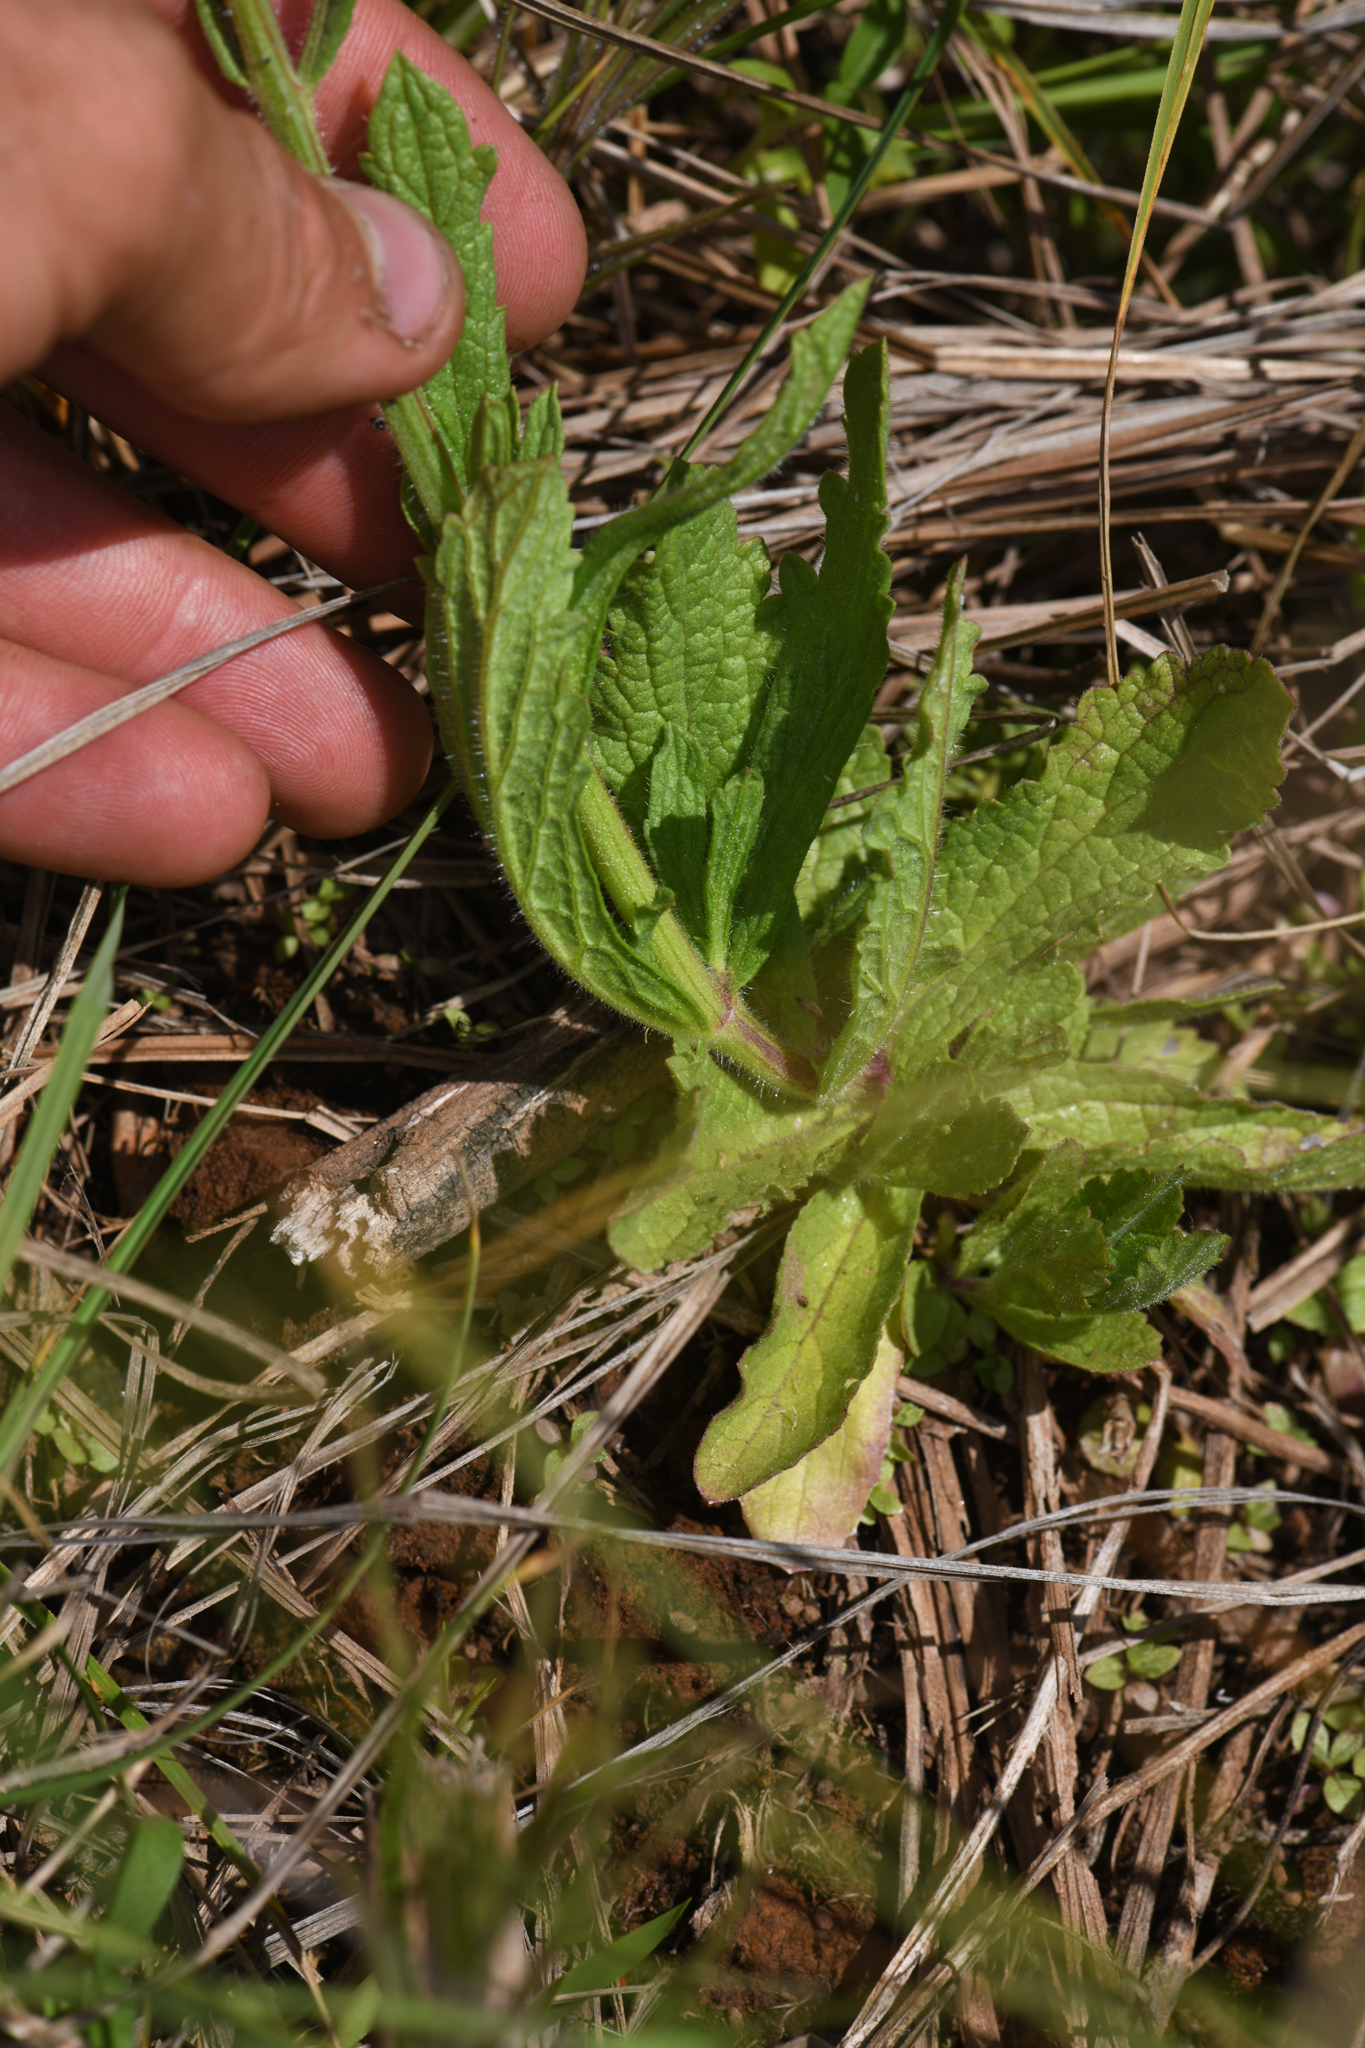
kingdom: Plantae
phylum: Tracheophyta
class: Magnoliopsida
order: Lamiales
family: Verbenaceae
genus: Verbena
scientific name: Verbena californica
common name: California vervain
